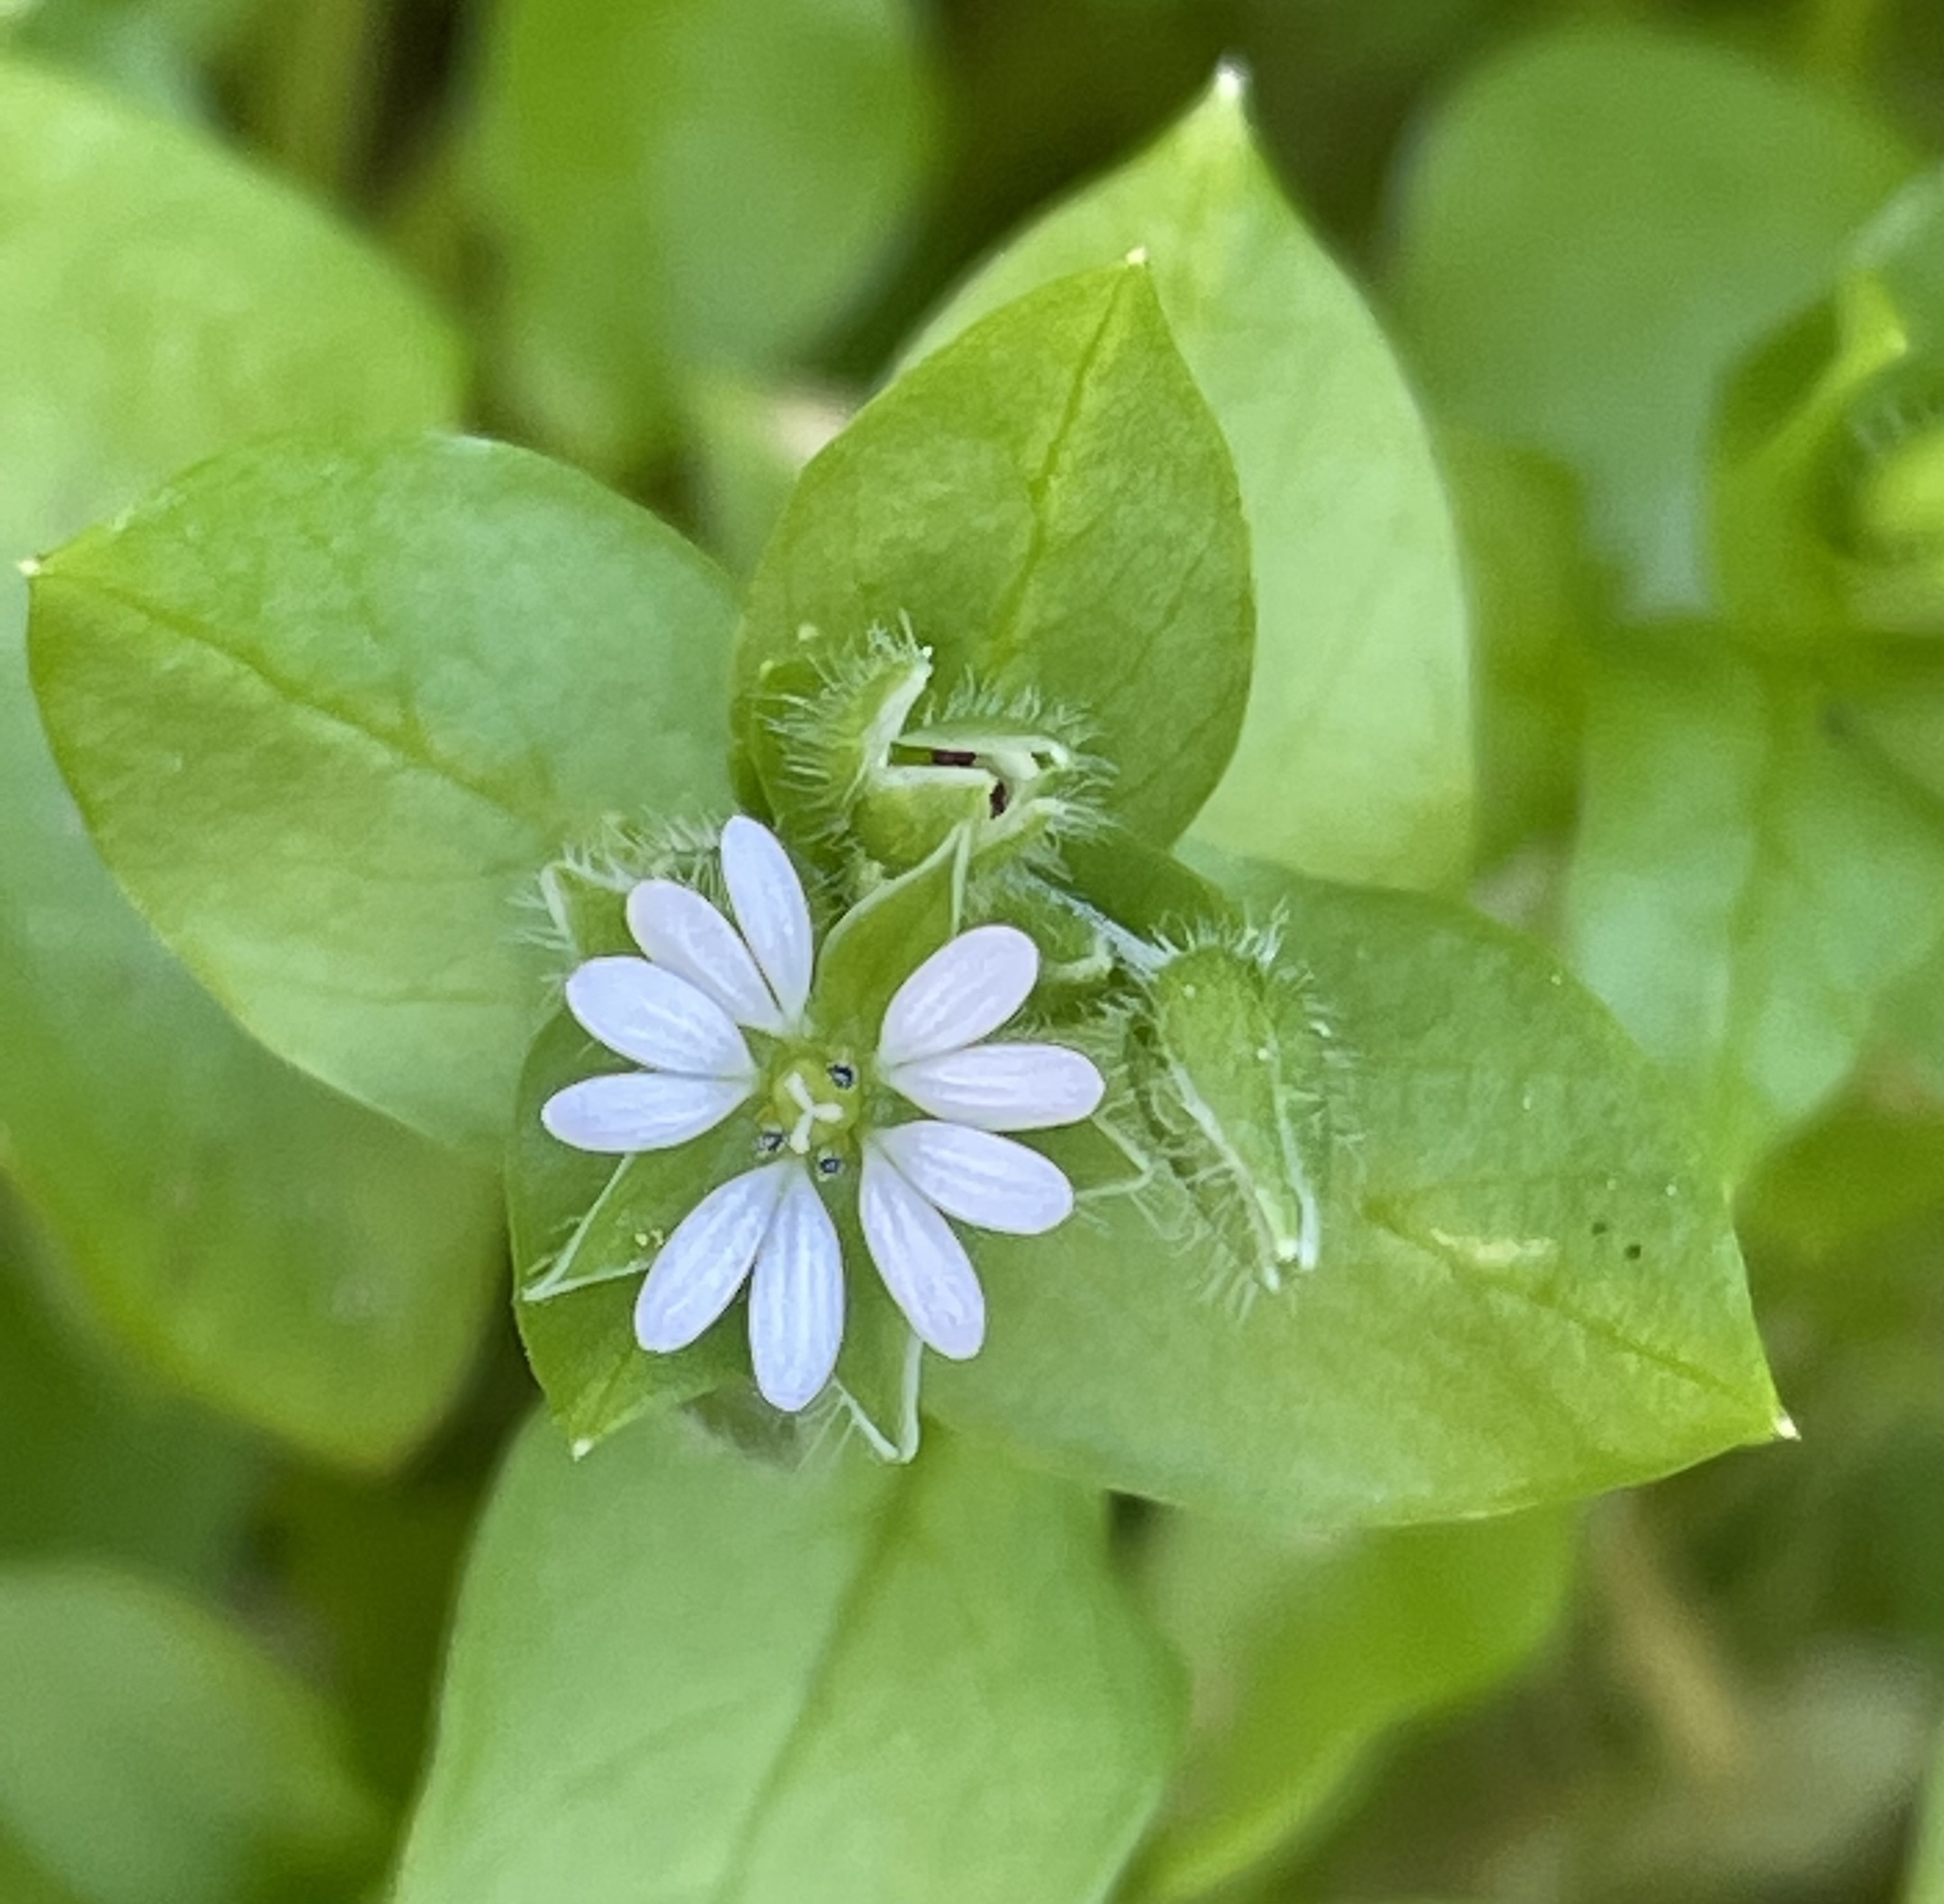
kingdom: Plantae
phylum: Tracheophyta
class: Magnoliopsida
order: Caryophyllales
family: Caryophyllaceae
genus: Stellaria
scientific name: Stellaria media
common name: Common chickweed
